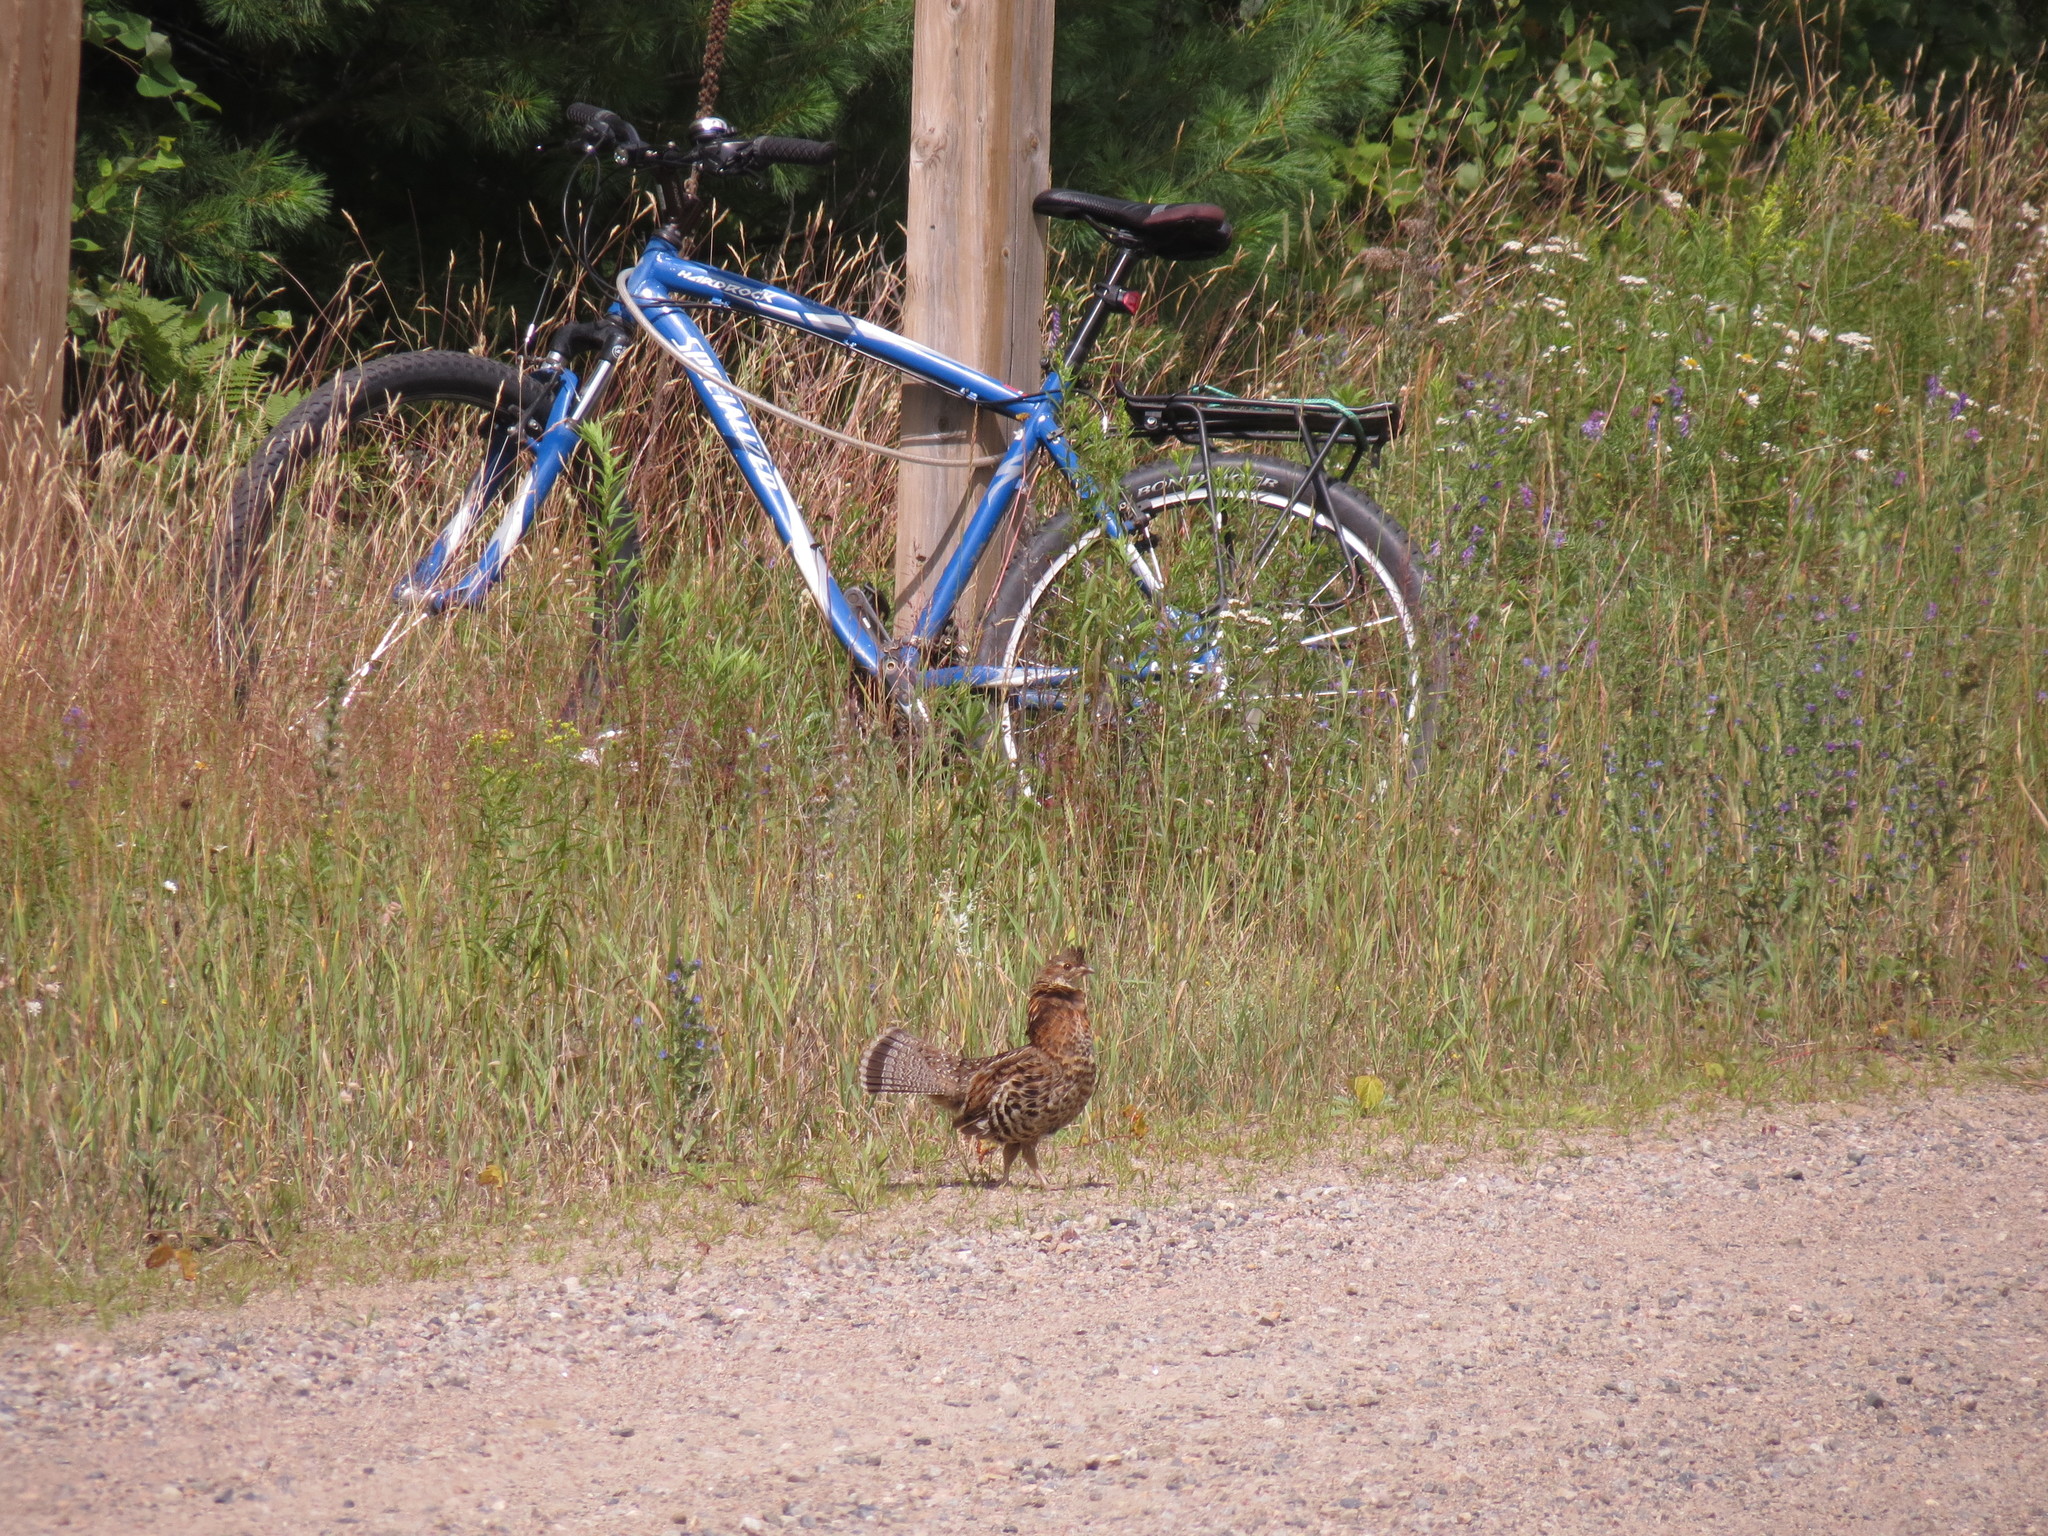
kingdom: Animalia
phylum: Chordata
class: Aves
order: Galliformes
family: Phasianidae
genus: Bonasa
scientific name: Bonasa umbellus
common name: Ruffed grouse
